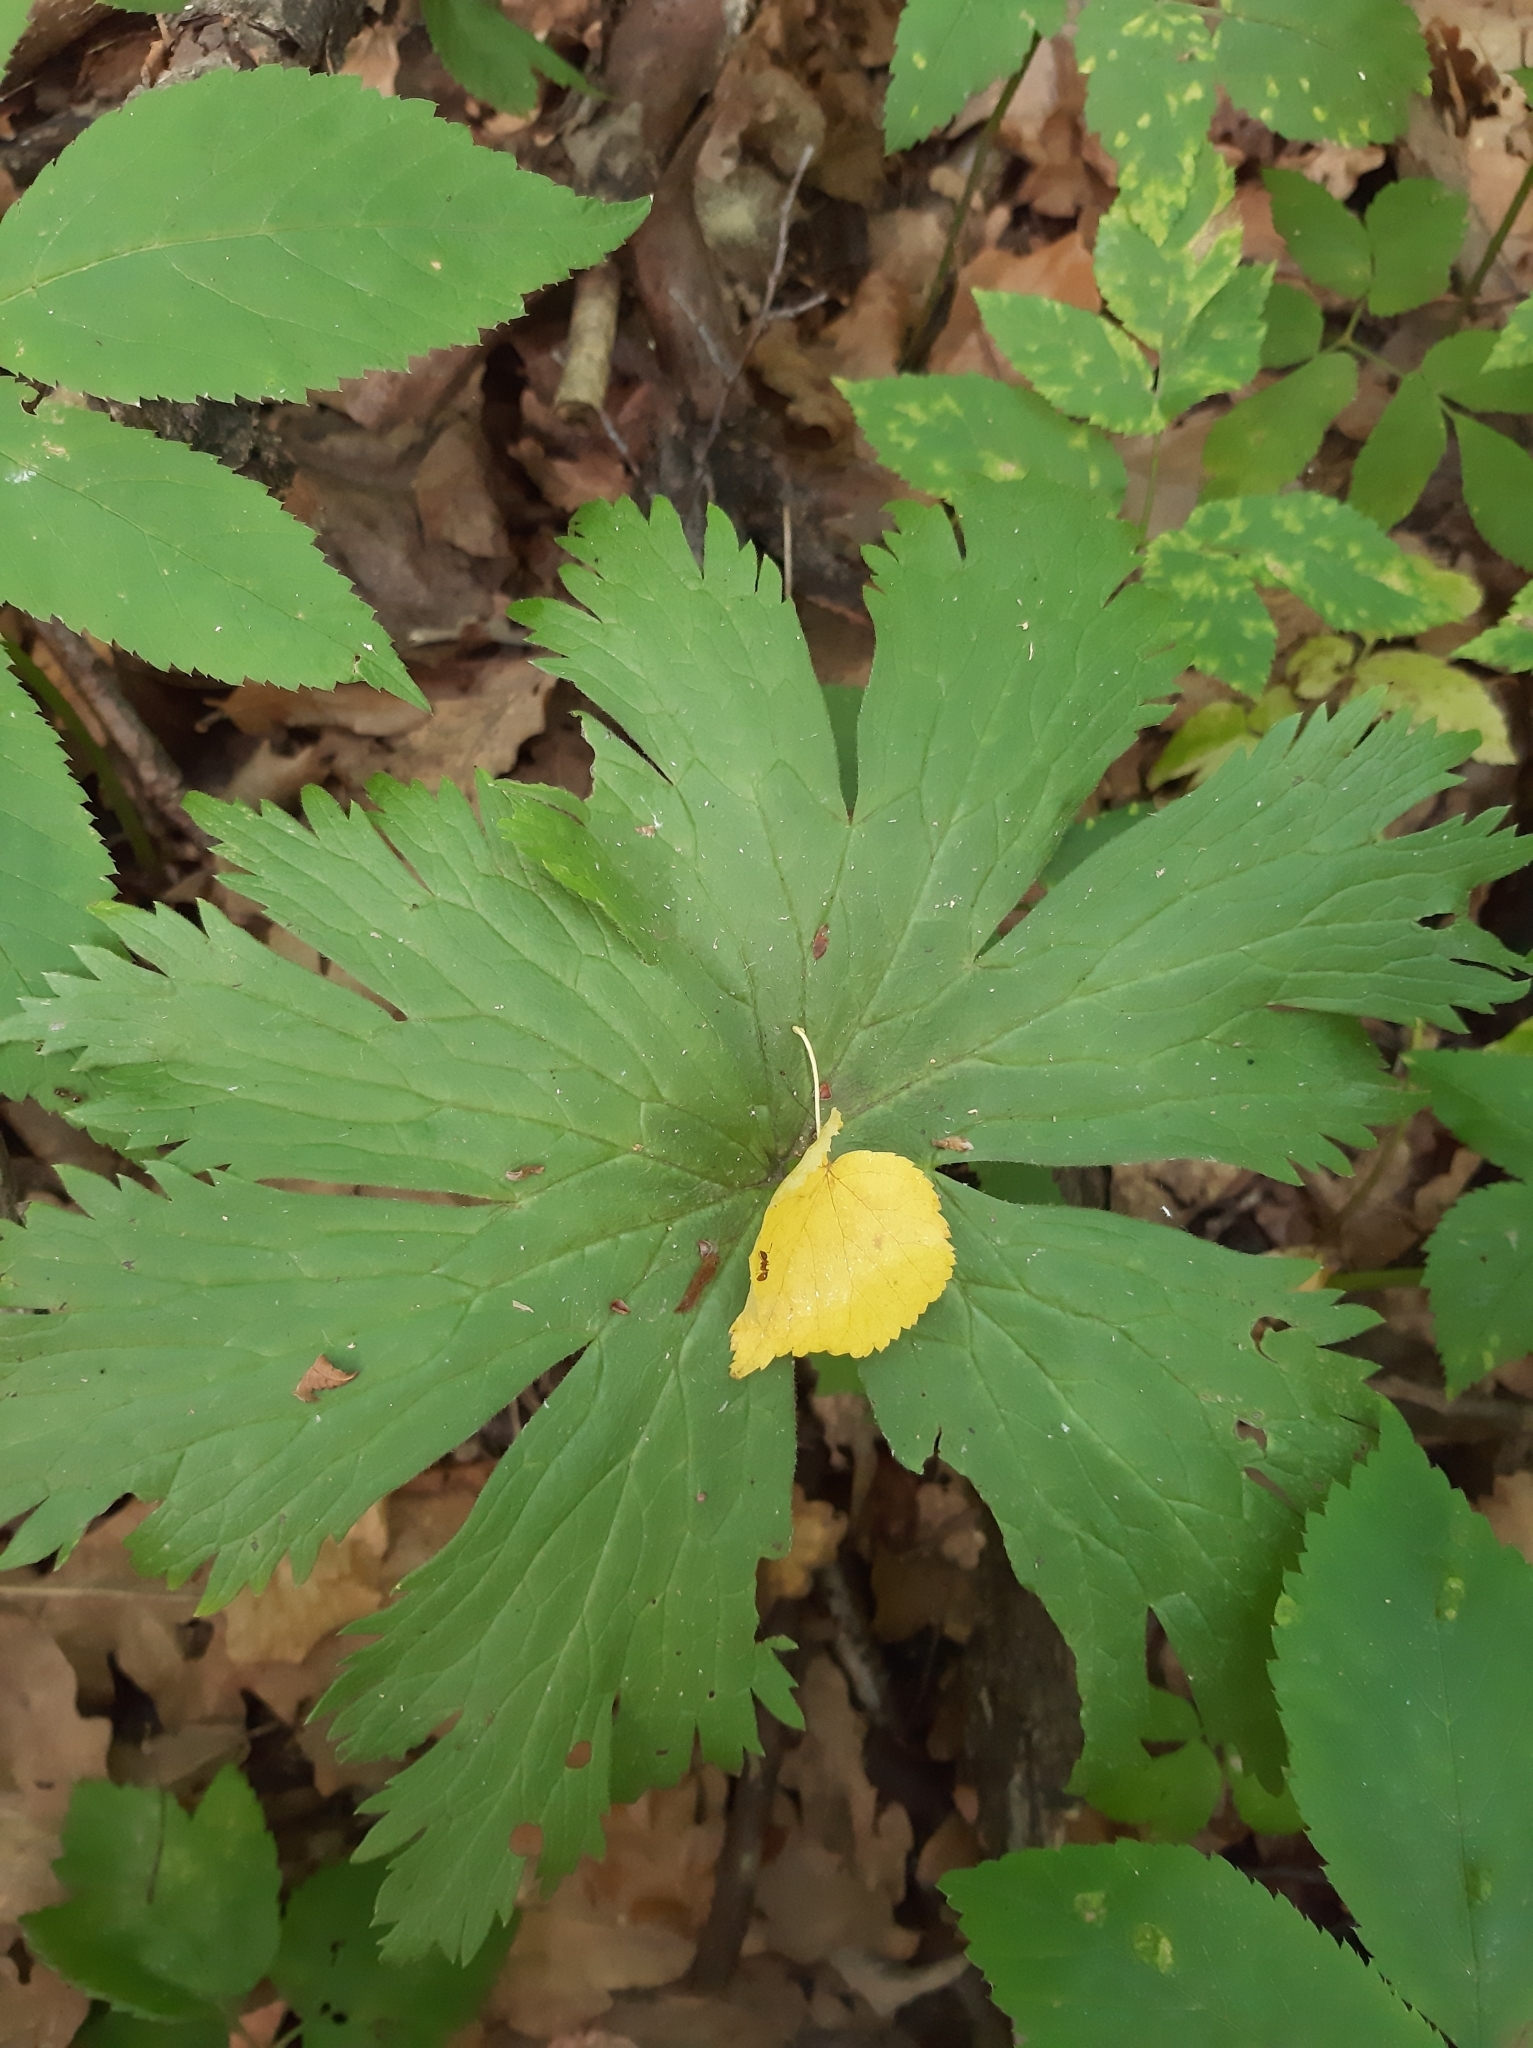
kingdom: Plantae
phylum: Tracheophyta
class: Magnoliopsida
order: Ranunculales
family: Ranunculaceae
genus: Aconitum
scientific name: Aconitum septentrionale
